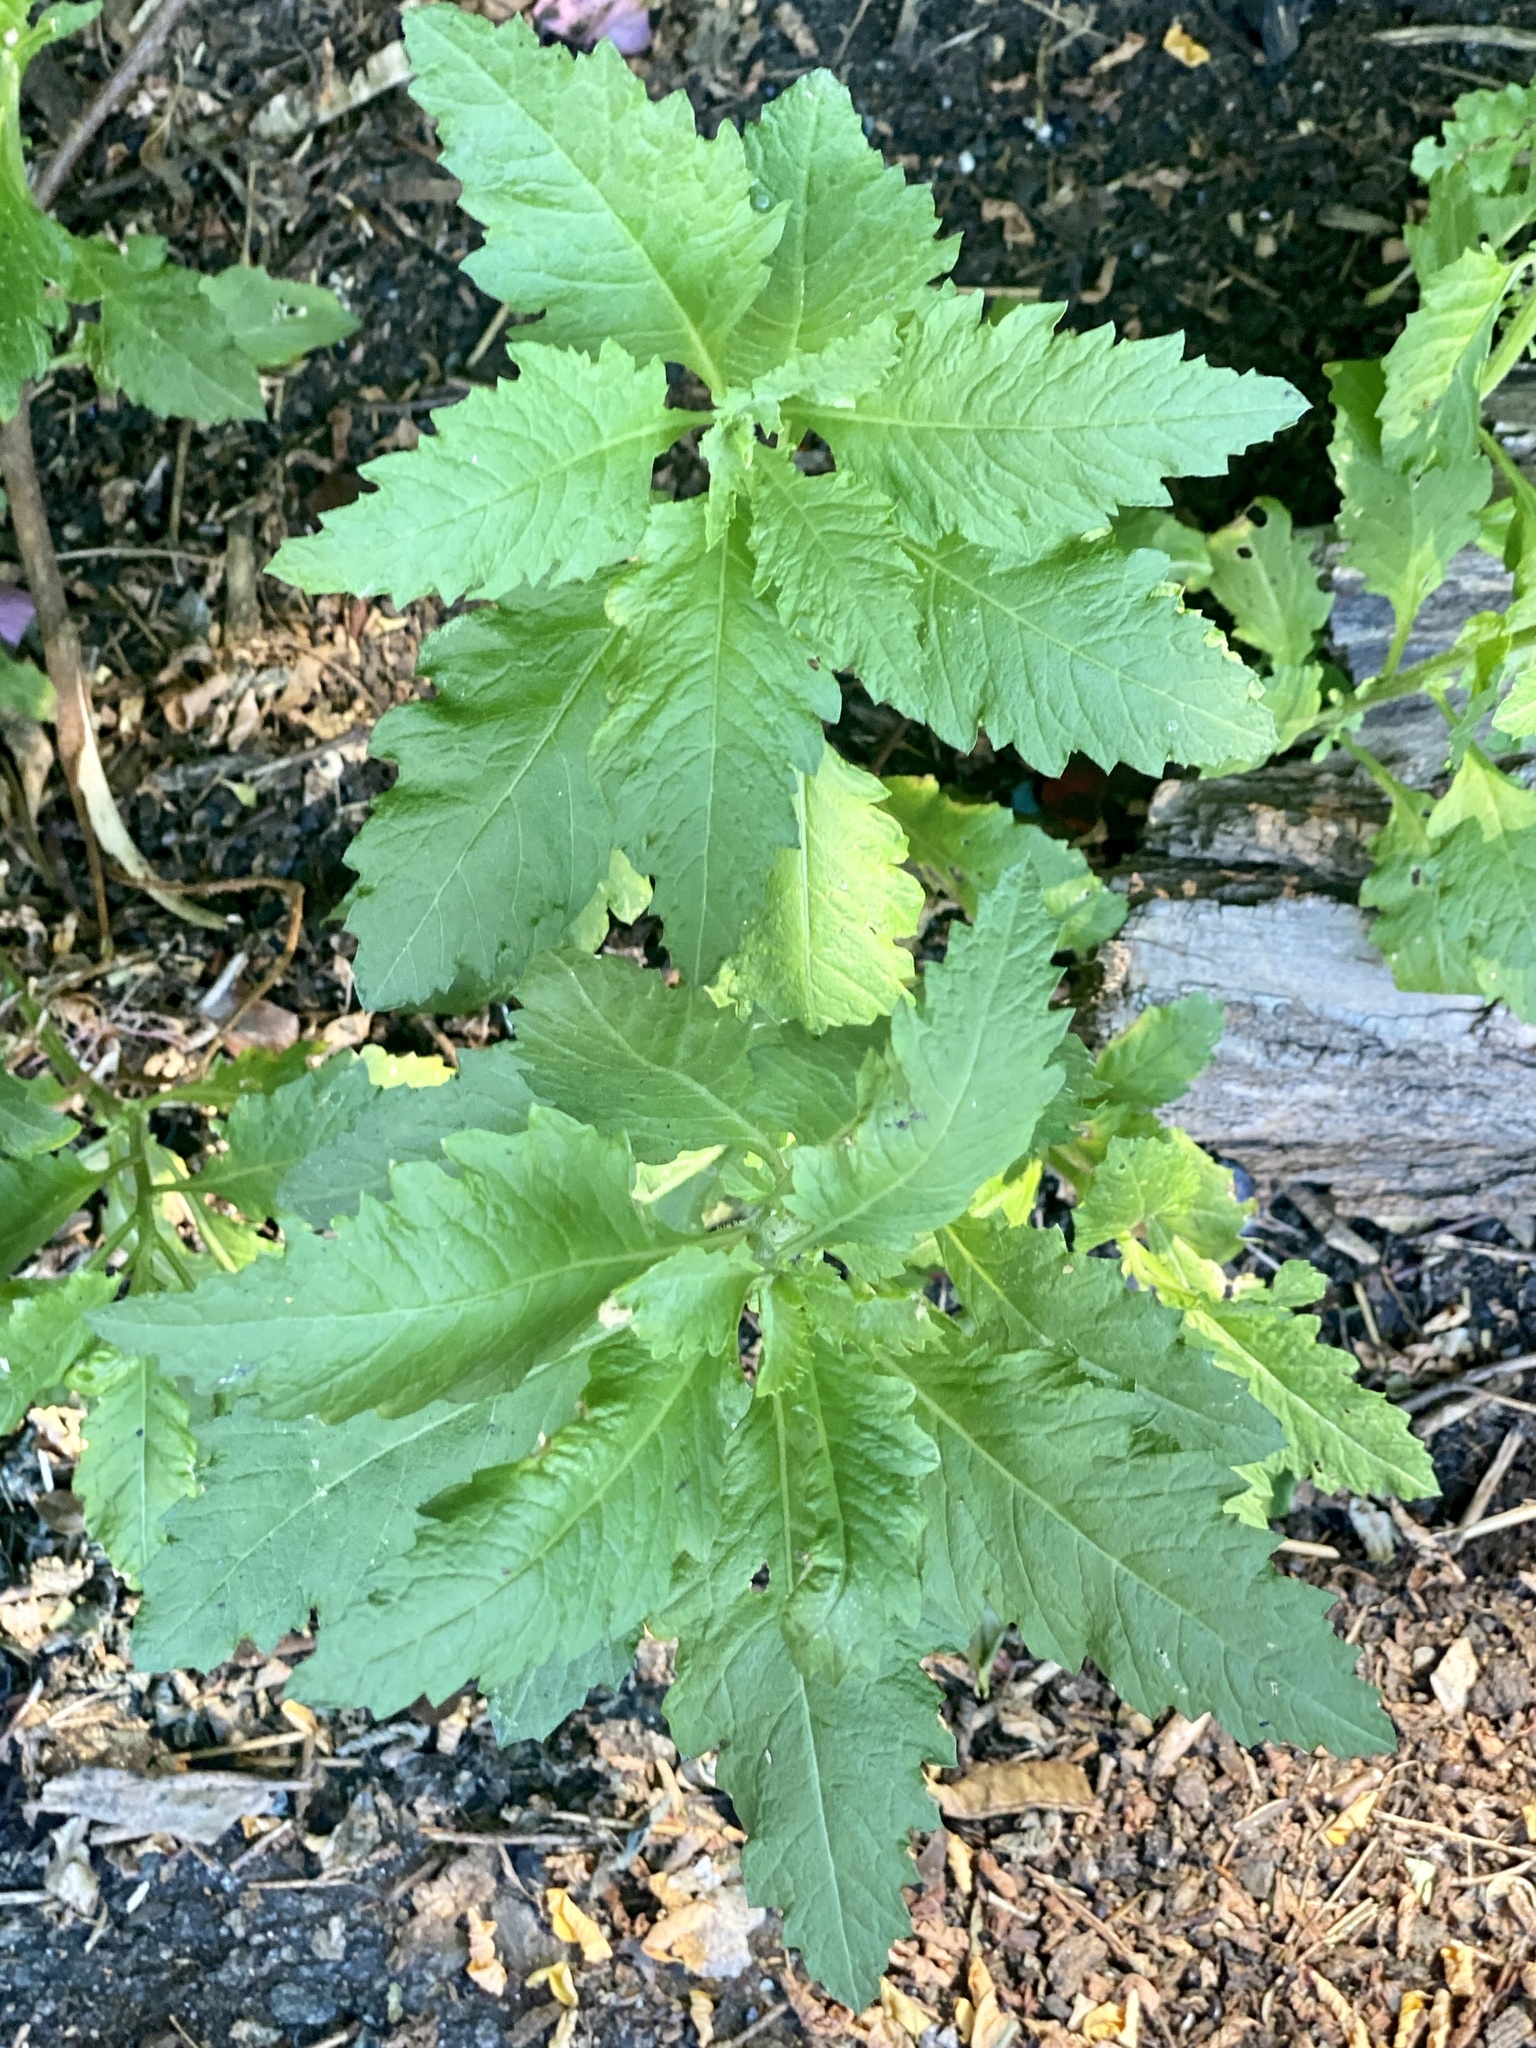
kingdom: Plantae
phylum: Tracheophyta
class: Magnoliopsida
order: Caryophyllales
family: Amaranthaceae
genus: Dysphania
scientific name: Dysphania ambrosioides
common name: Wormseed
